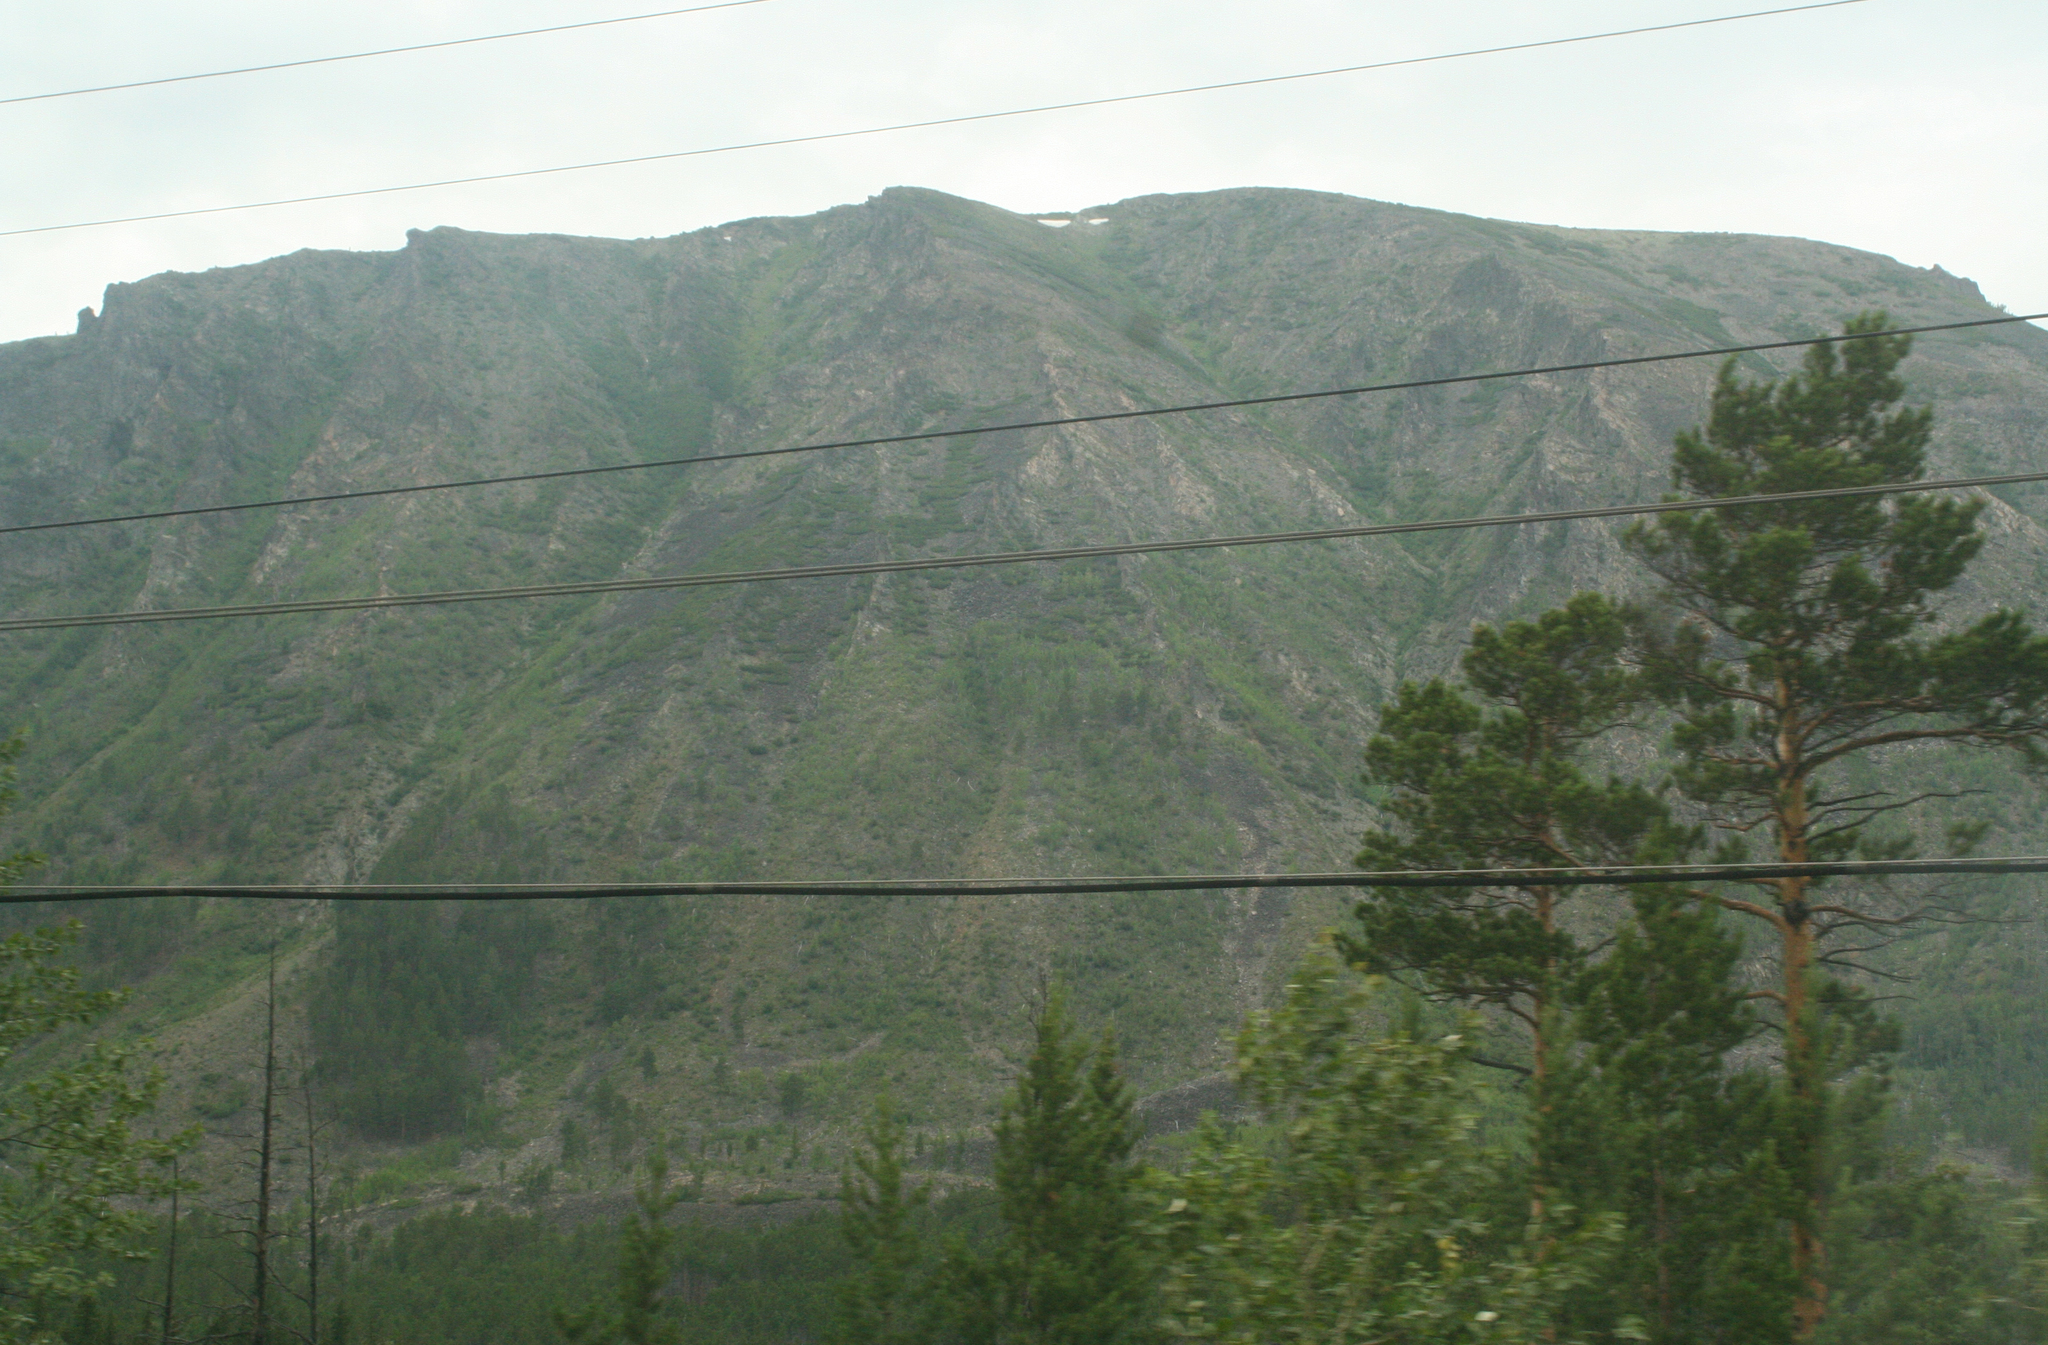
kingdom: Plantae
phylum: Tracheophyta
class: Pinopsida
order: Pinales
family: Pinaceae
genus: Pinus
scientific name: Pinus sylvestris
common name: Scots pine
